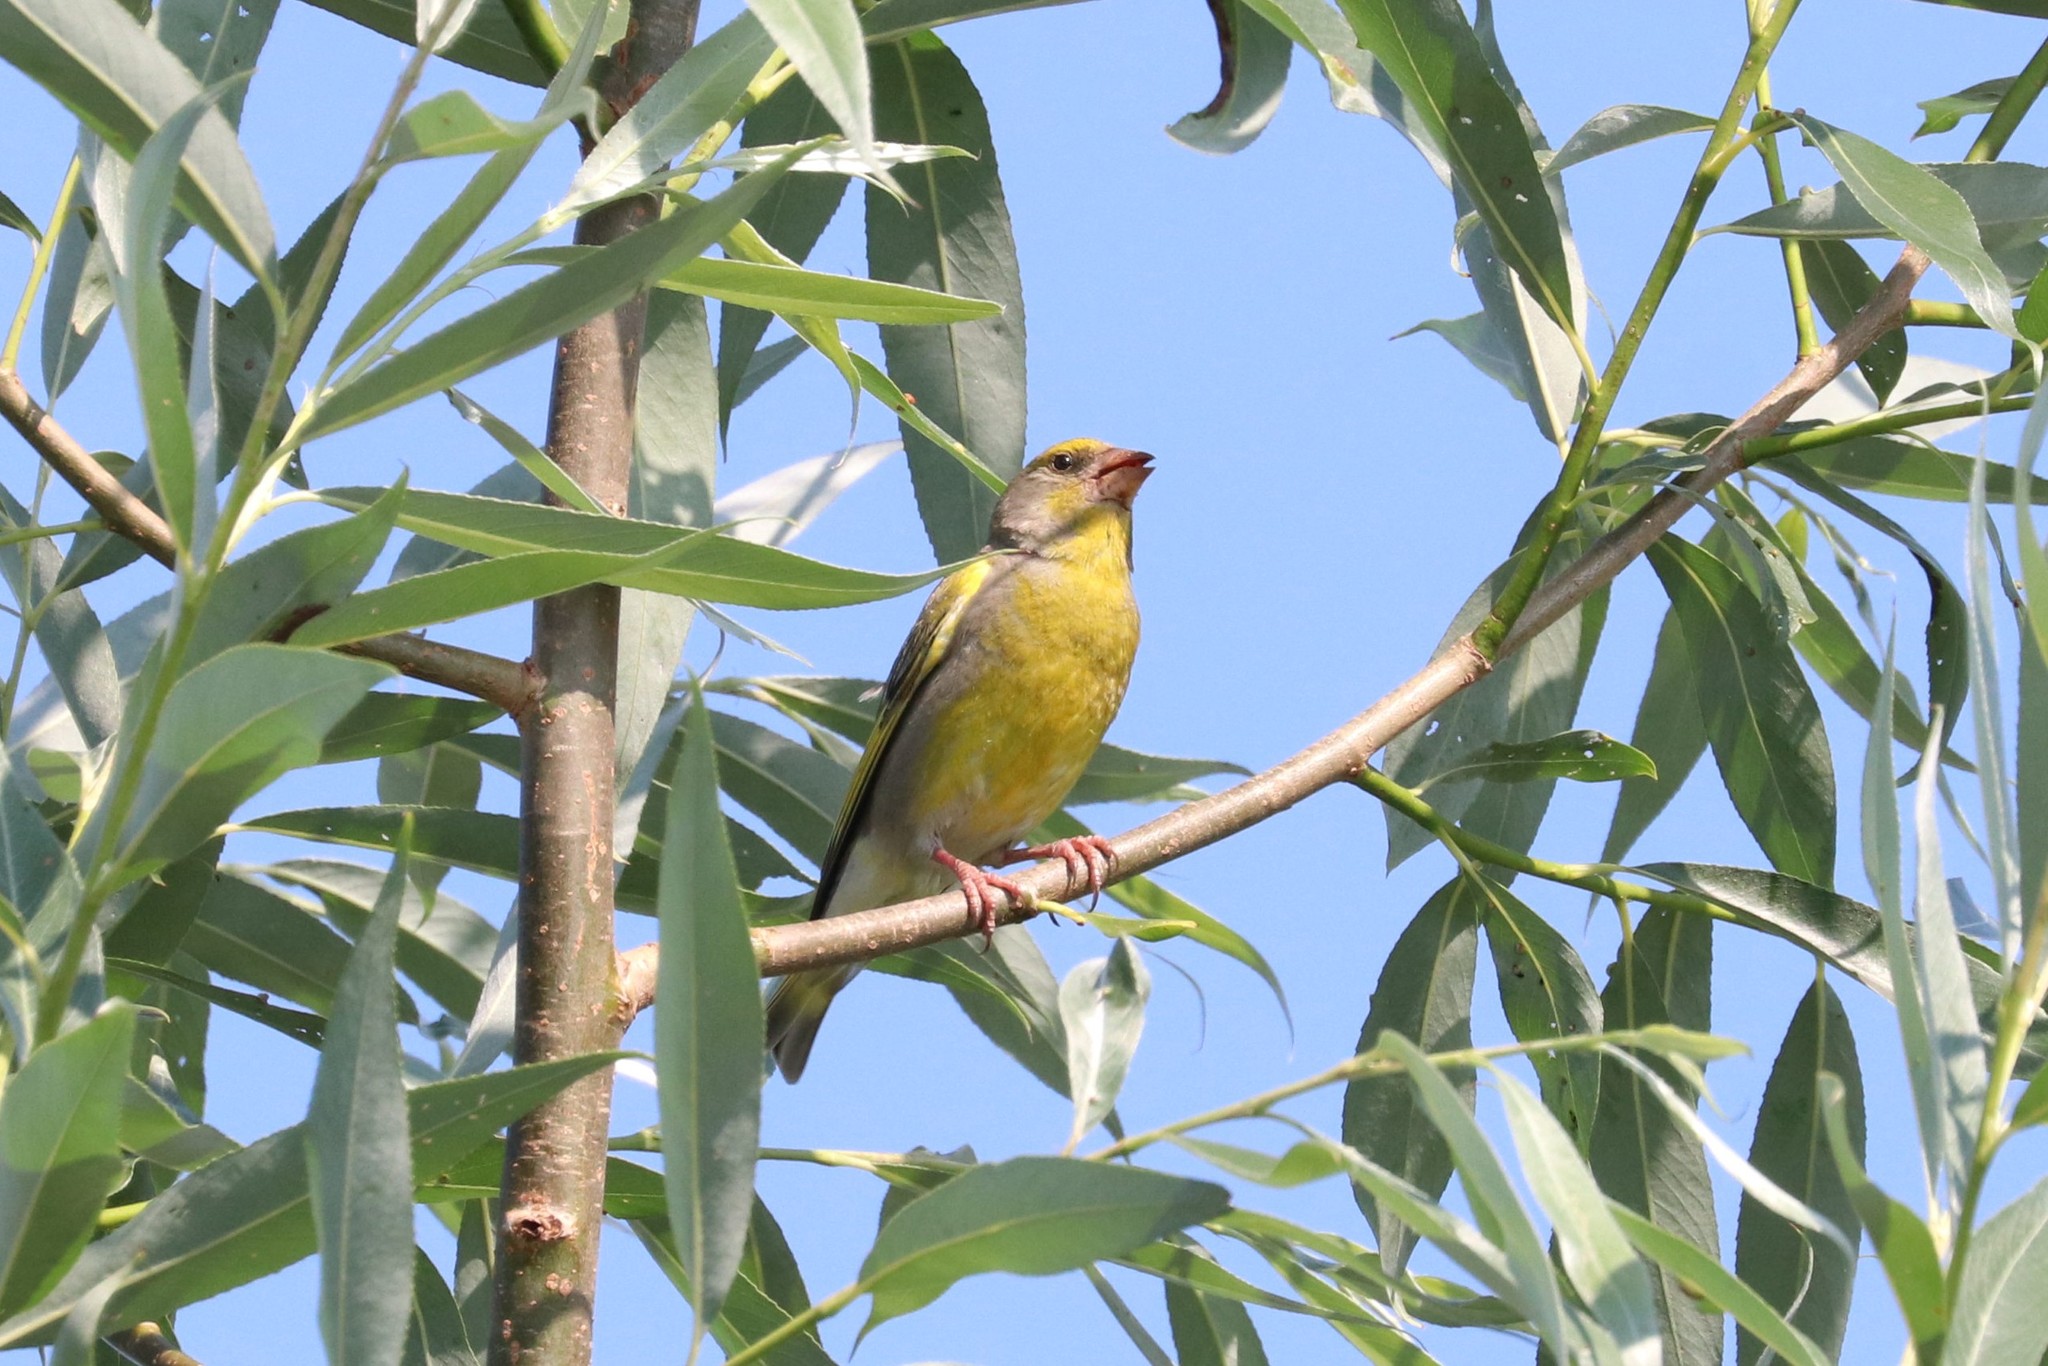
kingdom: Plantae
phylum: Tracheophyta
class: Liliopsida
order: Poales
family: Poaceae
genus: Chloris
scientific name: Chloris chloris
